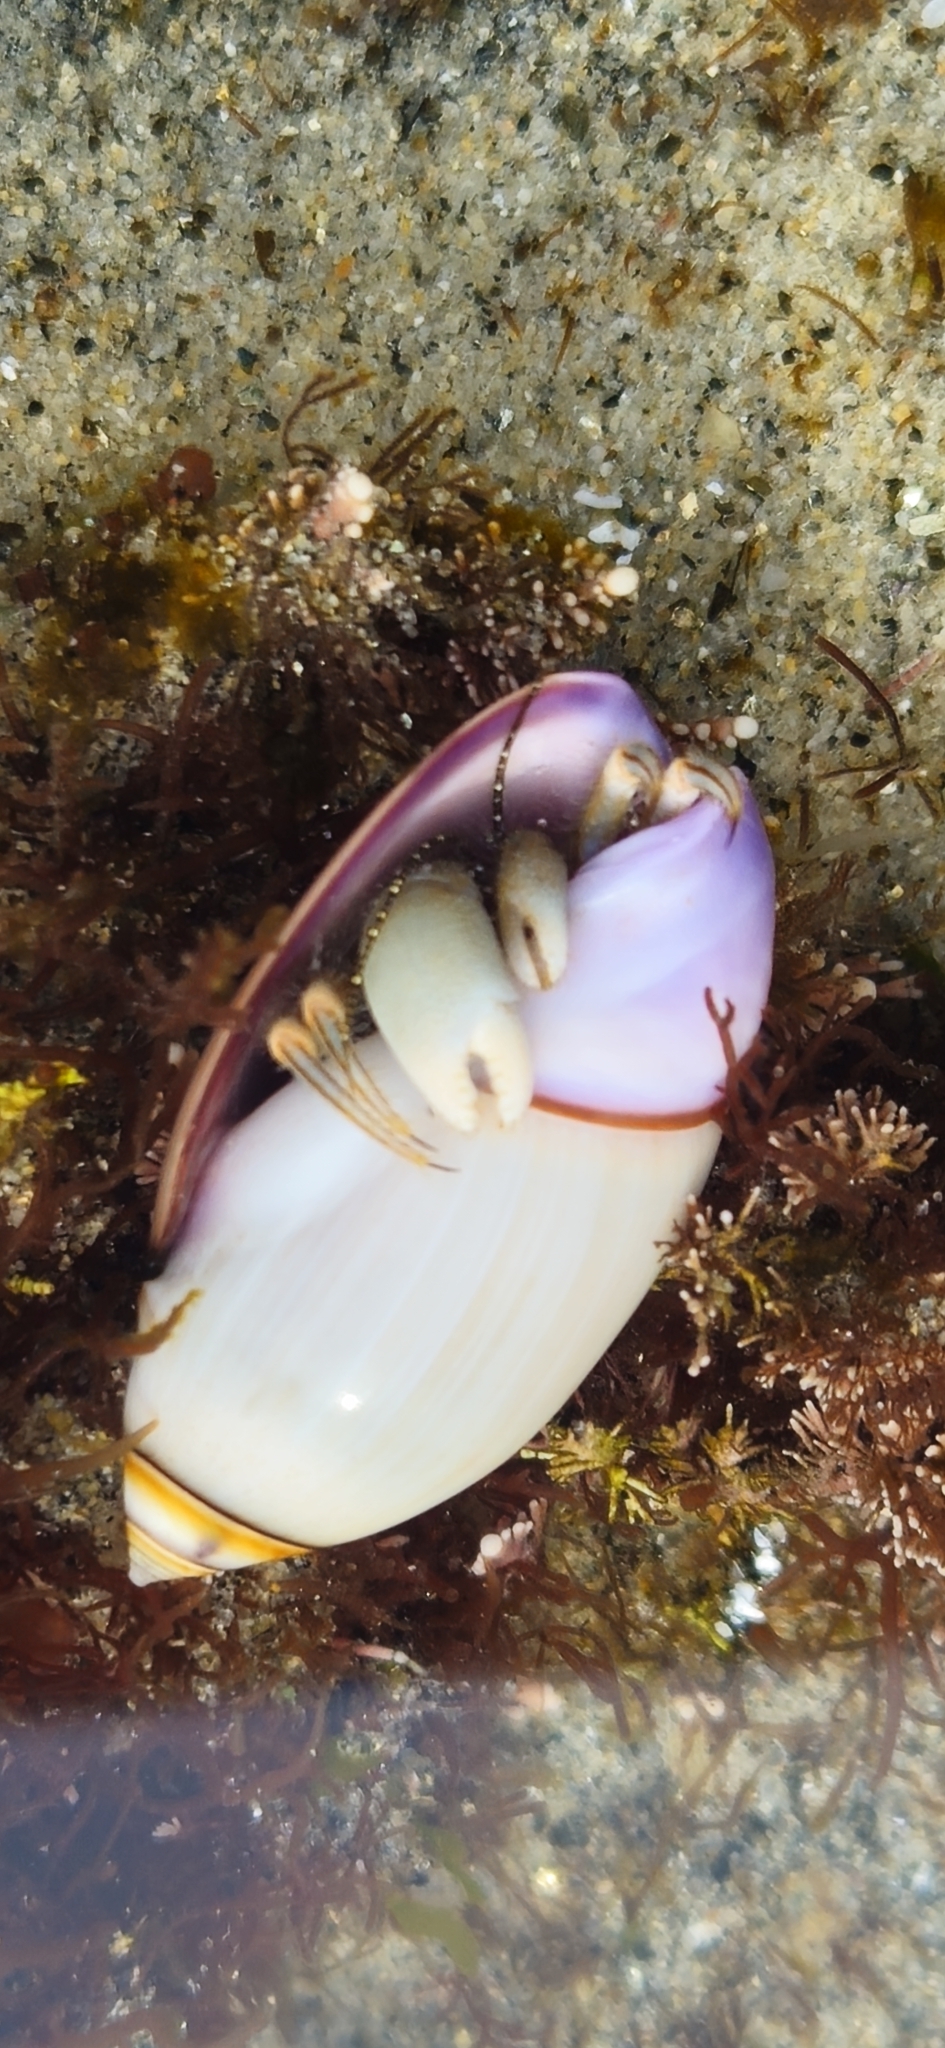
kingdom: Animalia
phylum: Mollusca
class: Gastropoda
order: Neogastropoda
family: Olividae
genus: Callianax
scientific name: Callianax biplicata
